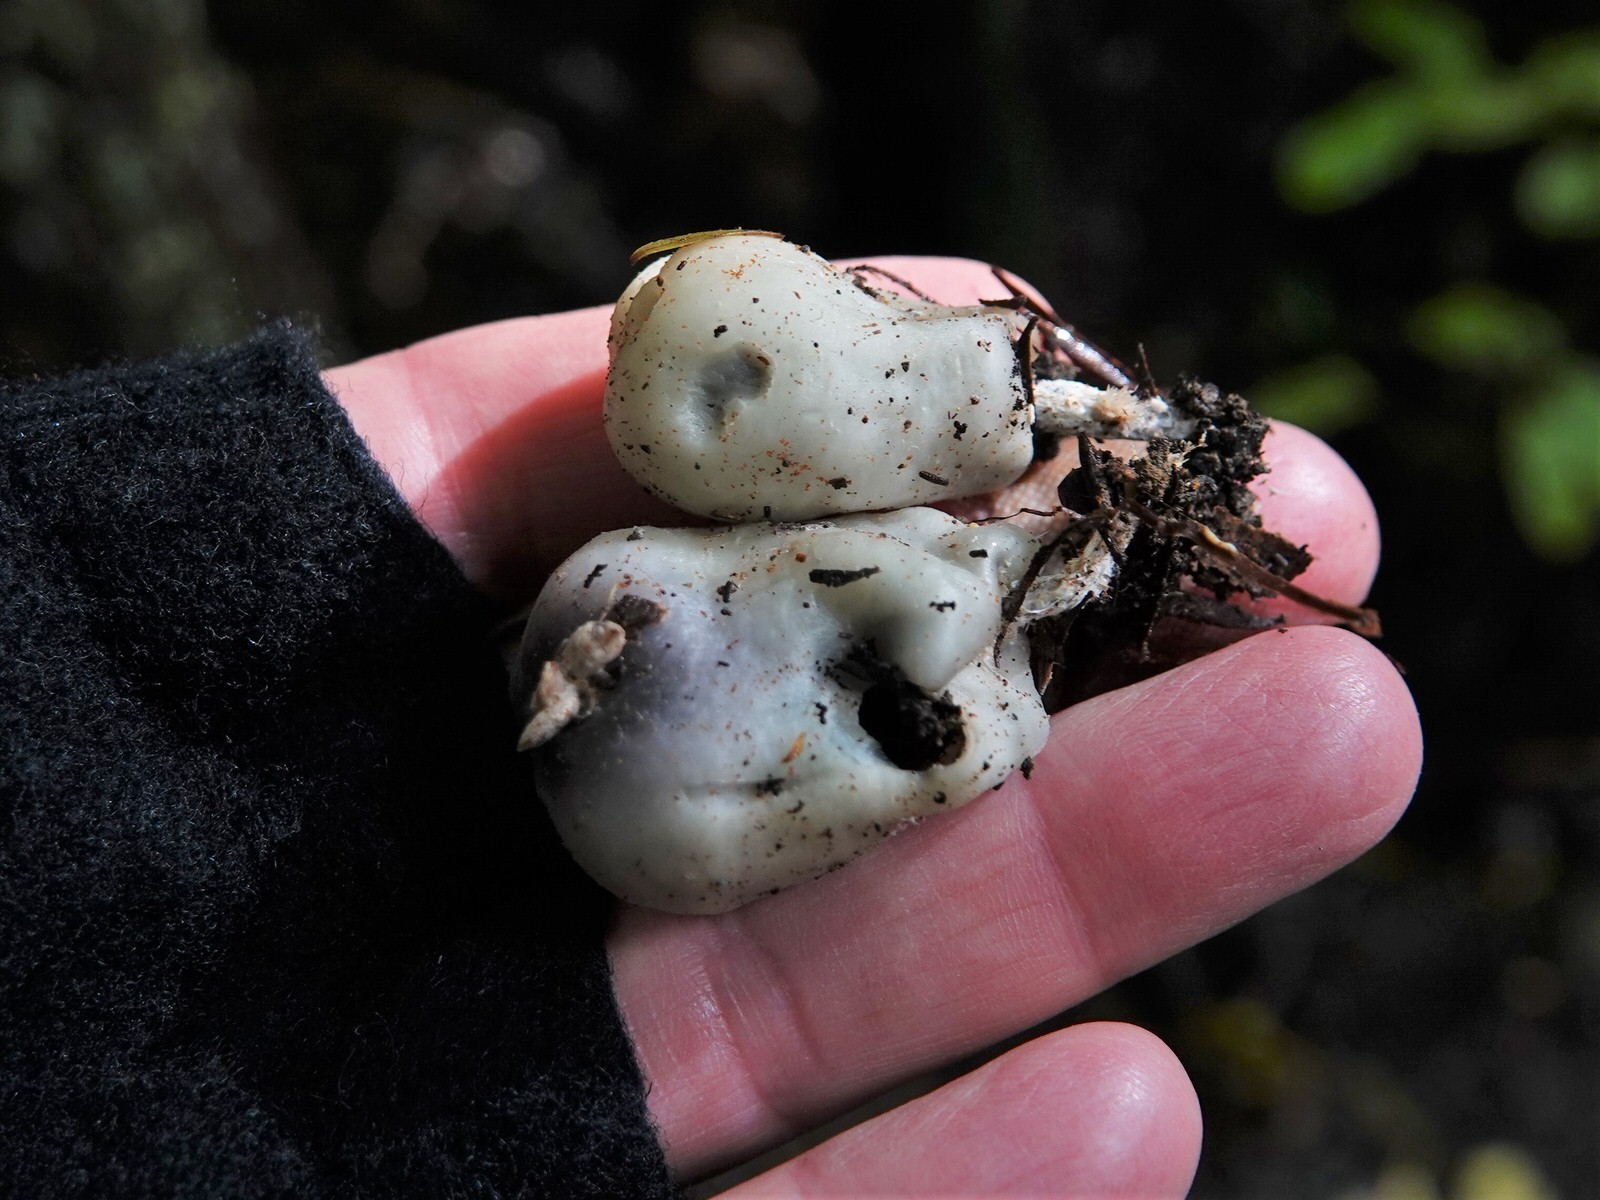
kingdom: Fungi
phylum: Basidiomycota
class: Agaricomycetes
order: Agaricales
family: Hymenogastraceae
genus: Psilocybe
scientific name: Psilocybe weraroa
